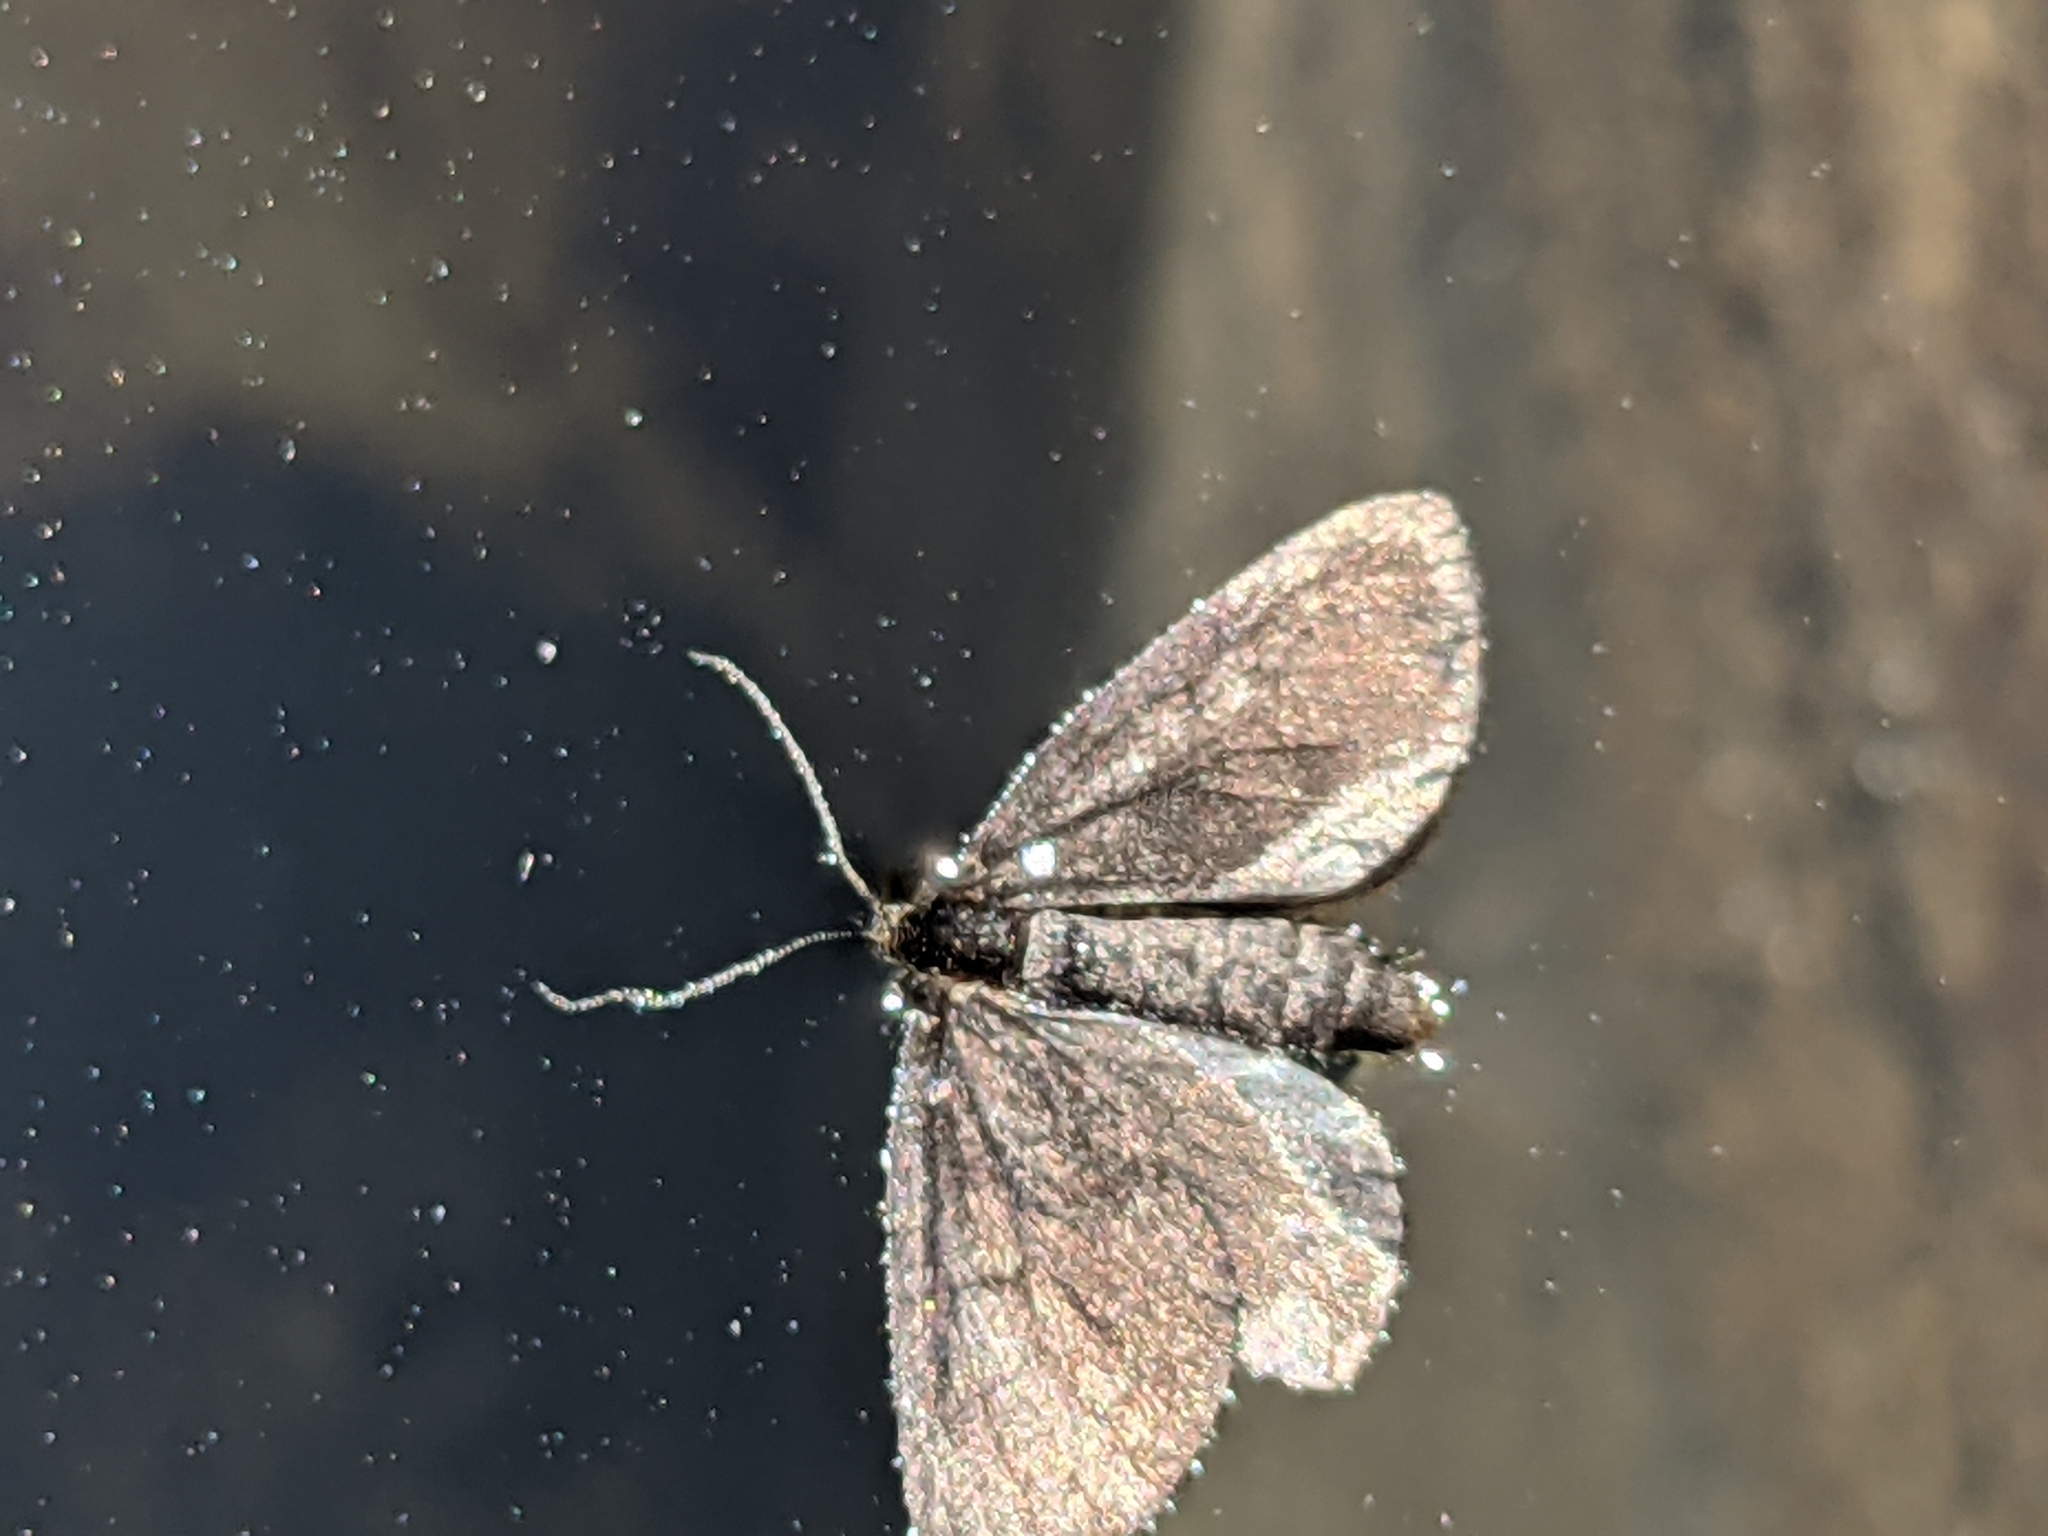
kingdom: Animalia
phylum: Arthropoda
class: Insecta
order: Lepidoptera
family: Geometridae
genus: Odezia
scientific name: Odezia atrata
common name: Chimney sweeper
